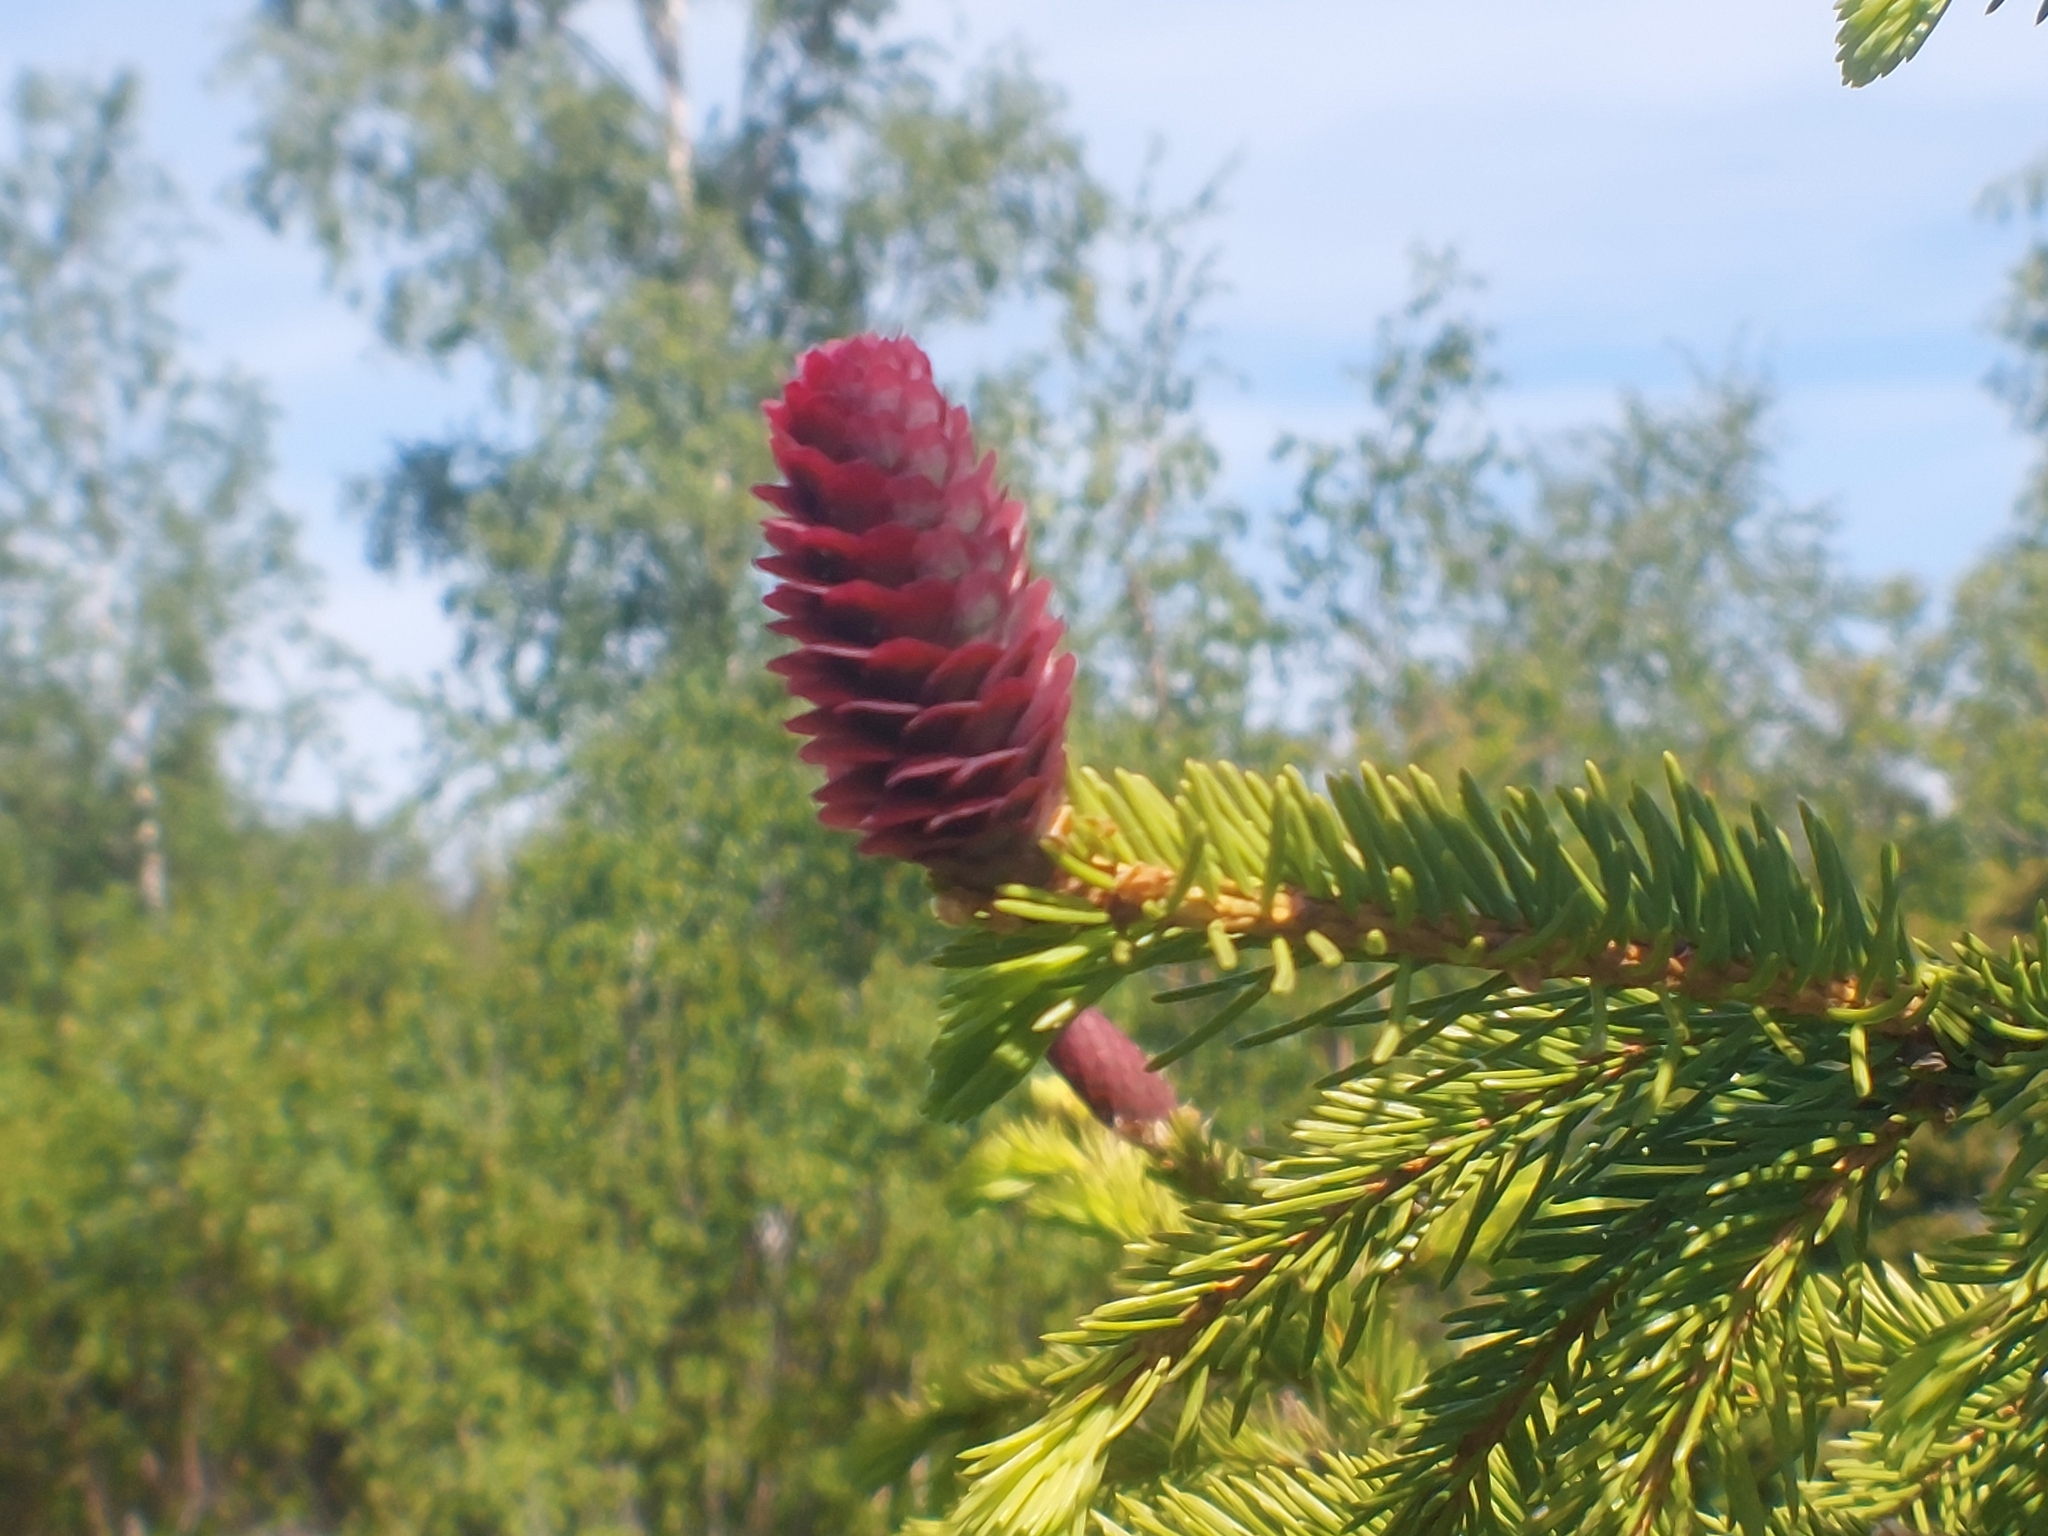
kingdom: Plantae
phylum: Tracheophyta
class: Pinopsida
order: Pinales
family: Pinaceae
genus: Picea
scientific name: Picea abies
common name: Norway spruce
